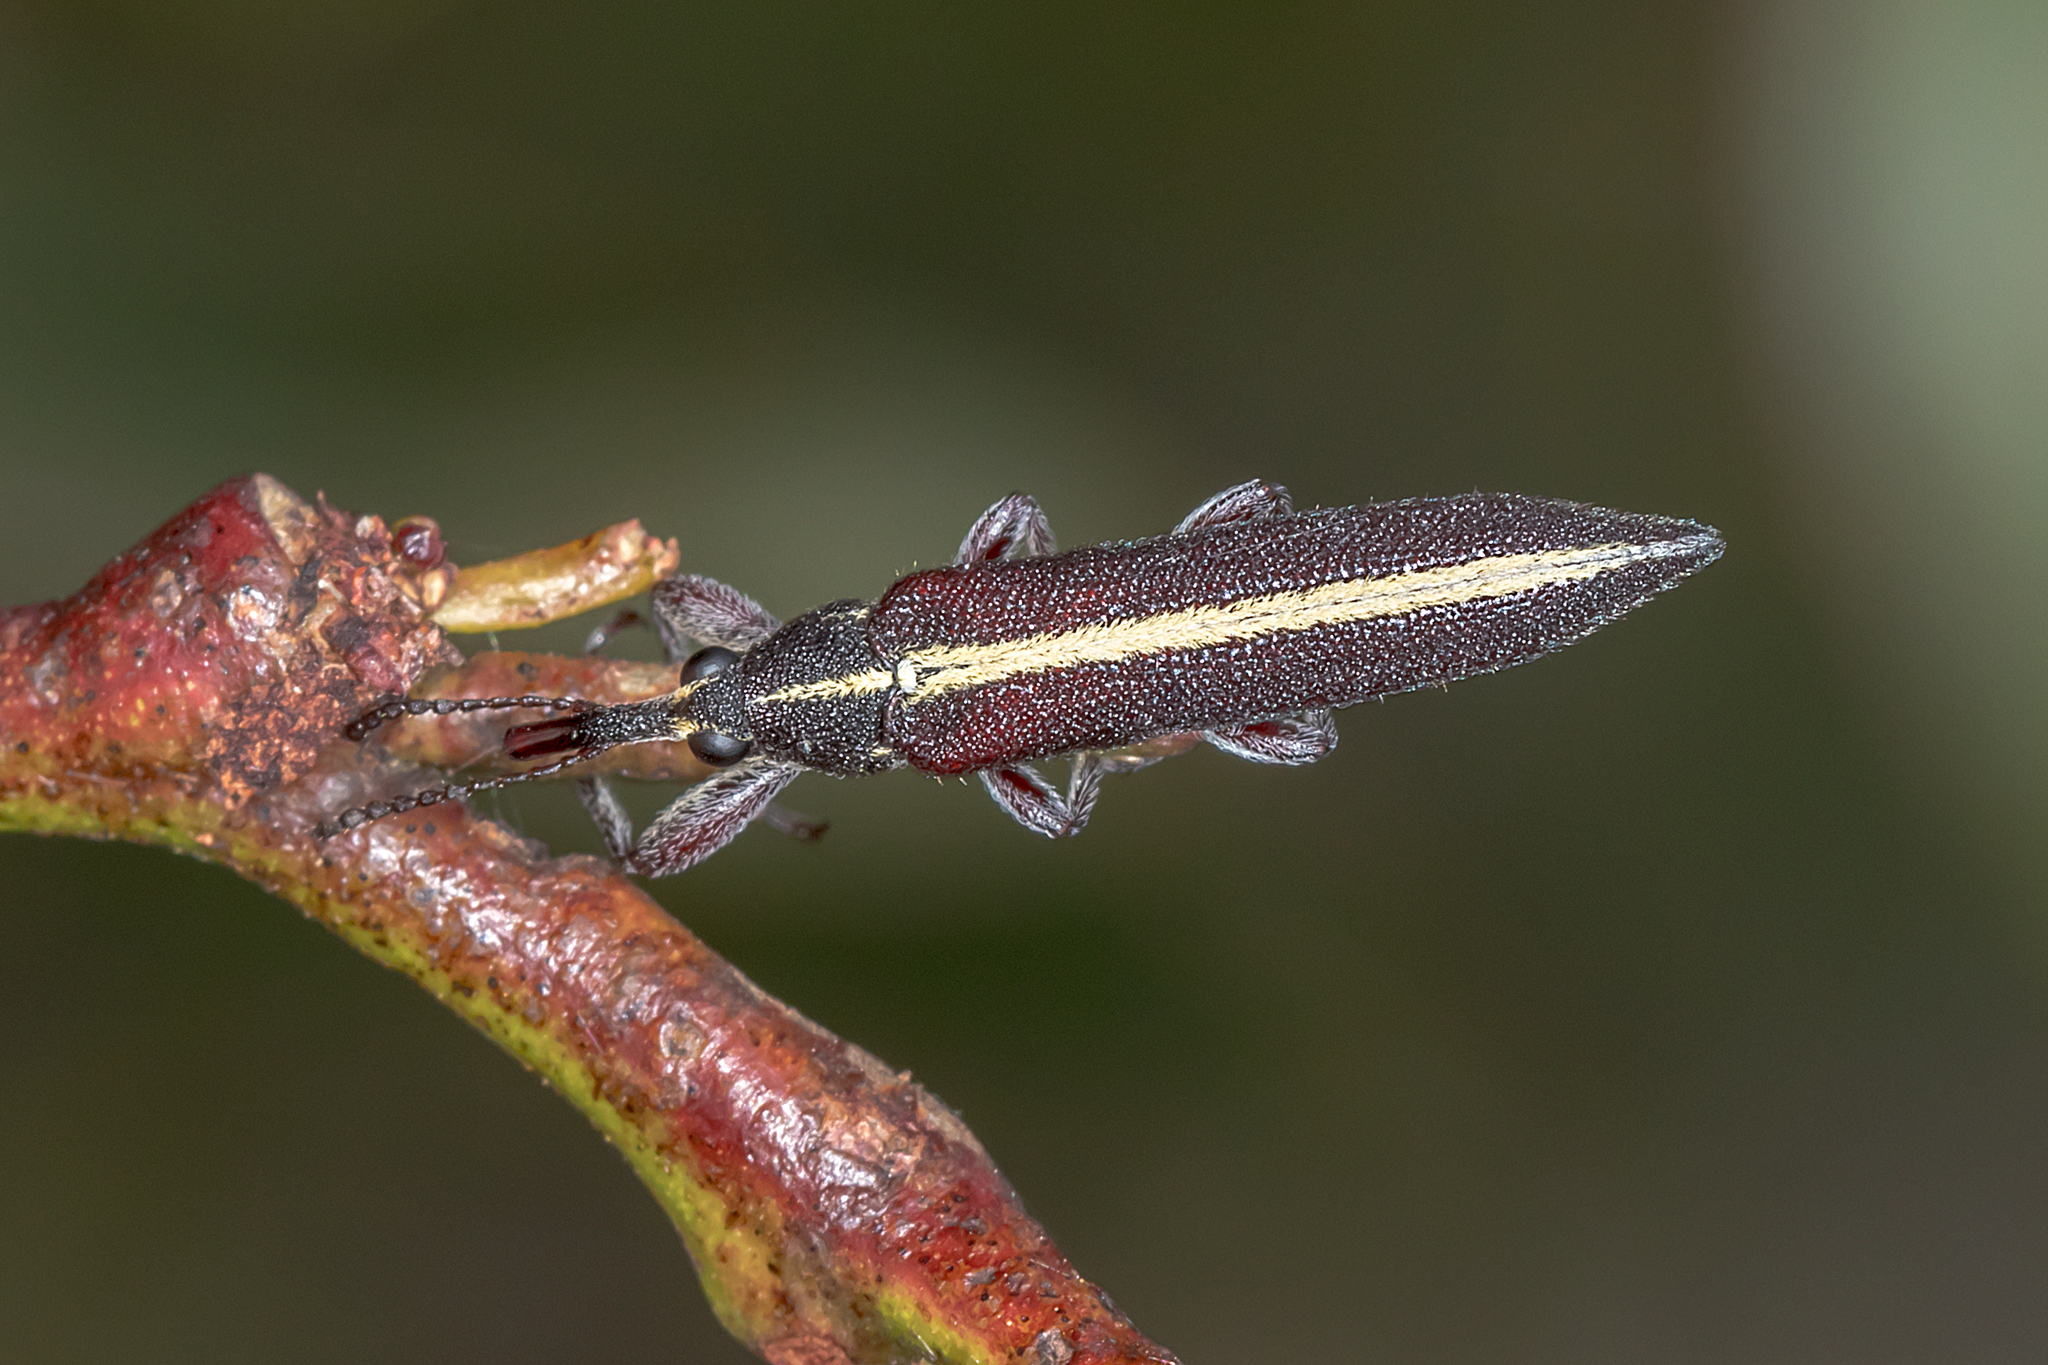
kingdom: Animalia
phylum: Arthropoda
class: Insecta
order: Coleoptera
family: Belidae
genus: Rhinotia
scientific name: Rhinotia suturalis
